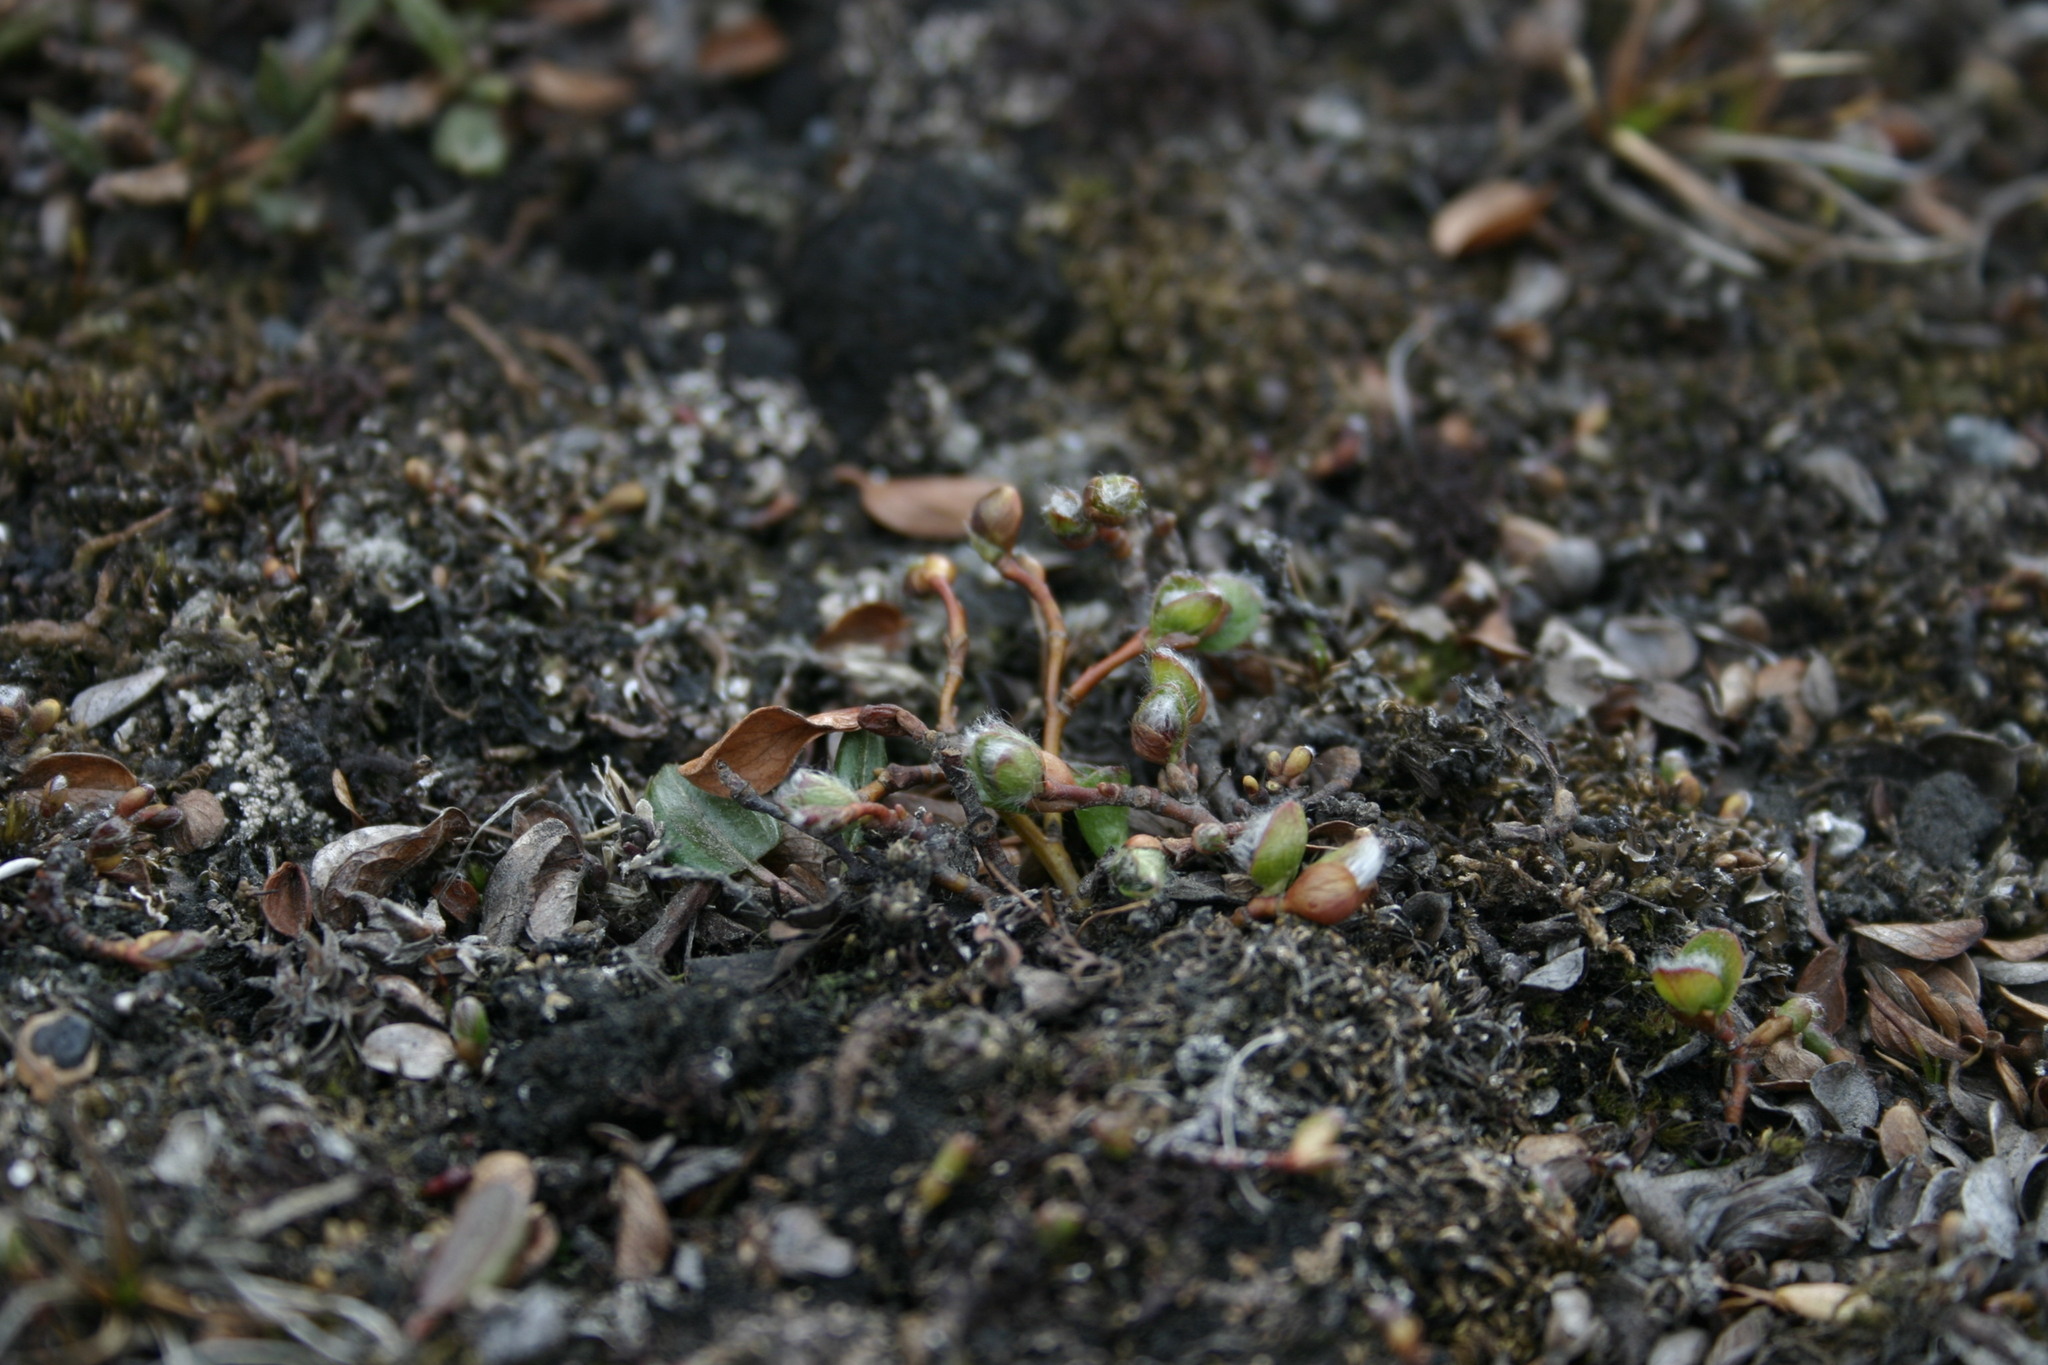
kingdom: Plantae
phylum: Tracheophyta
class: Magnoliopsida
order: Malpighiales
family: Salicaceae
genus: Salix
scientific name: Salix polaris
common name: Polar willow
